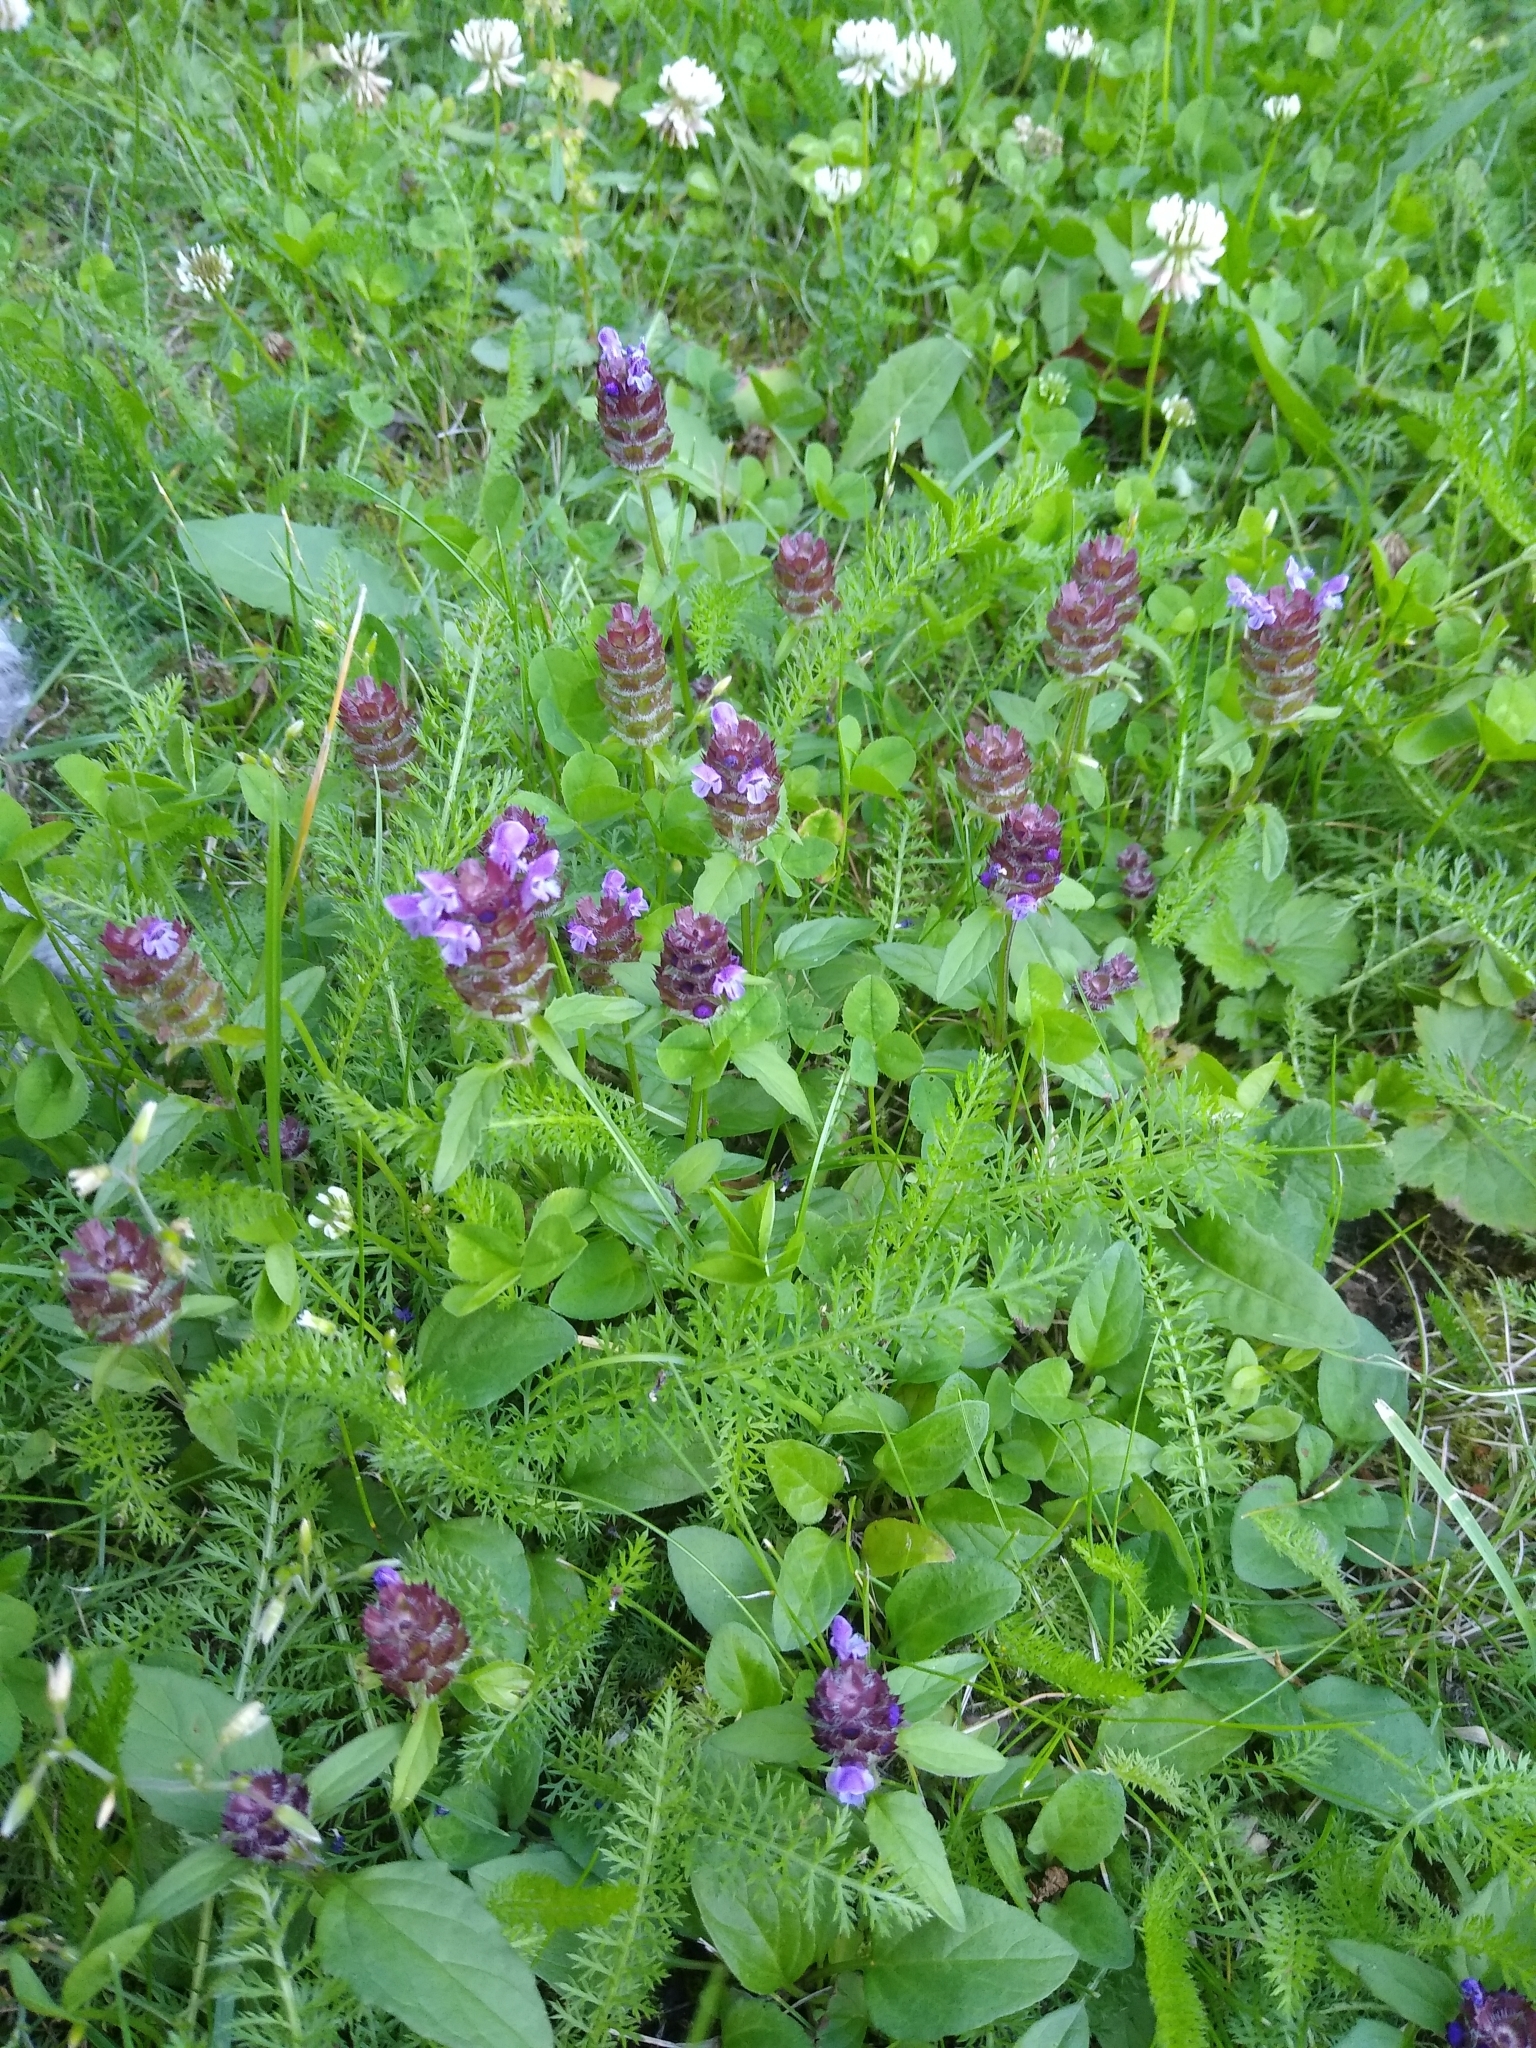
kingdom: Plantae
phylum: Tracheophyta
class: Magnoliopsida
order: Lamiales
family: Lamiaceae
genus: Prunella
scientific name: Prunella vulgaris
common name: Heal-all
